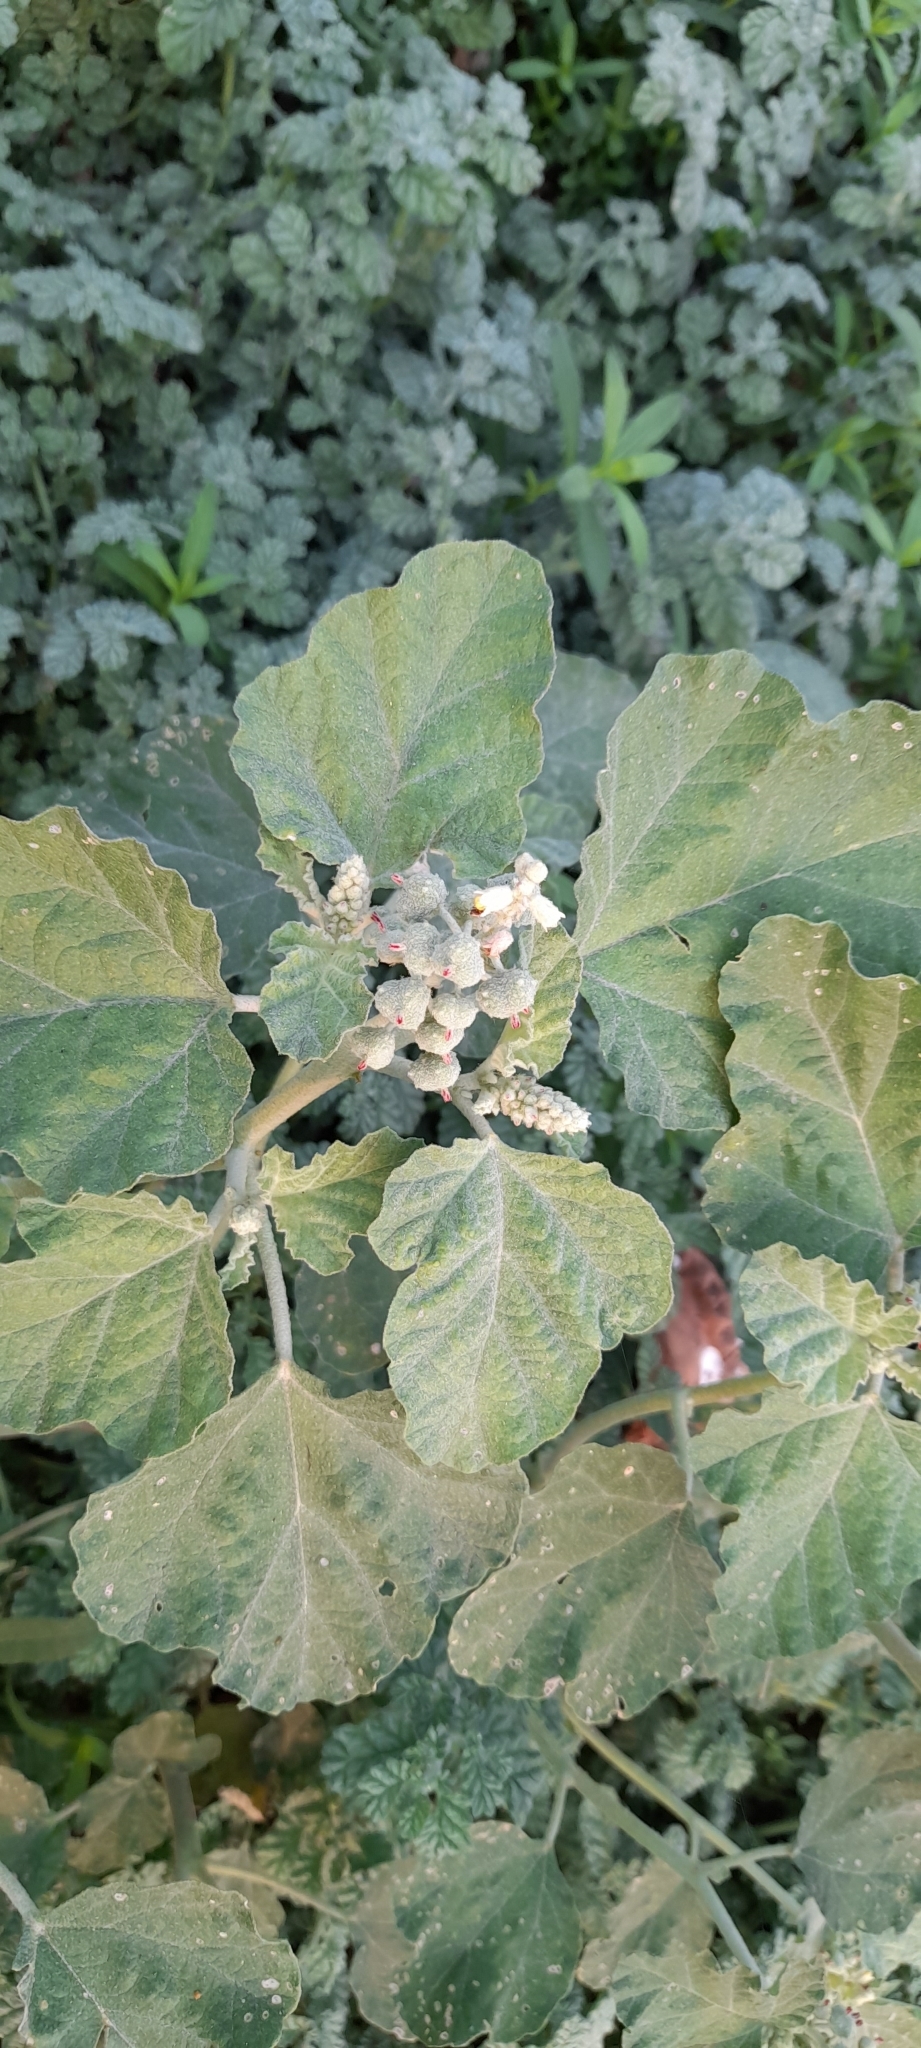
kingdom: Plantae
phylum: Tracheophyta
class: Magnoliopsida
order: Malpighiales
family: Euphorbiaceae
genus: Chrozophora
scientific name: Chrozophora rottleri
